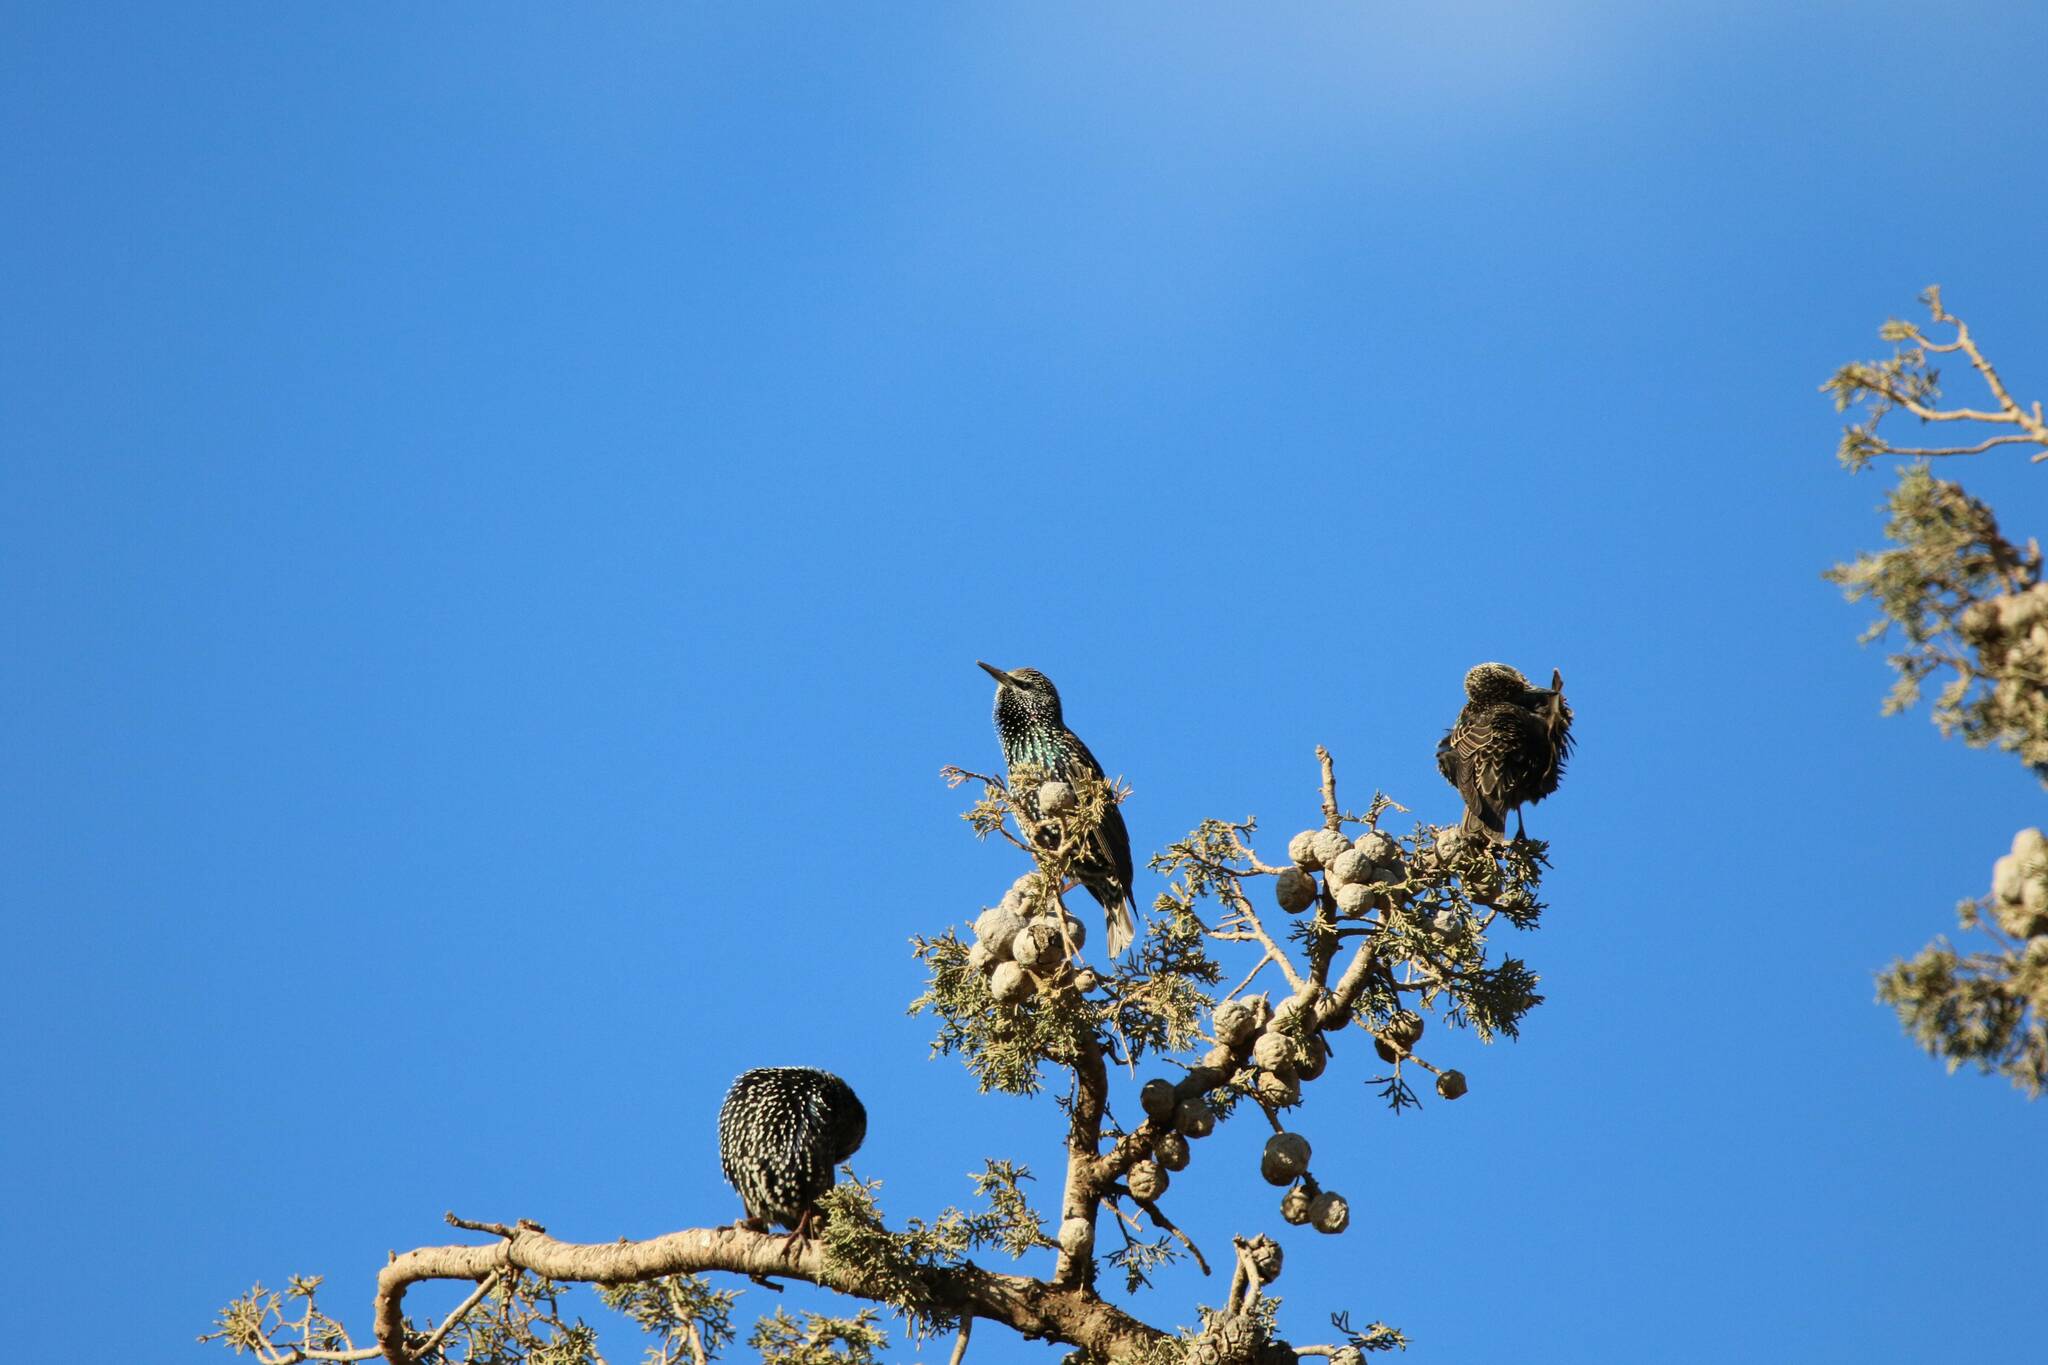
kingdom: Animalia
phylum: Chordata
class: Aves
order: Passeriformes
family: Sturnidae
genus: Sturnus
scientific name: Sturnus vulgaris
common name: Common starling
